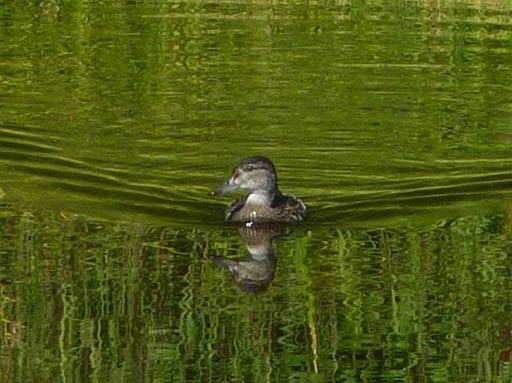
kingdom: Animalia
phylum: Chordata
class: Aves
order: Anseriformes
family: Anatidae
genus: Spatula
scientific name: Spatula discors
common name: Blue-winged teal
